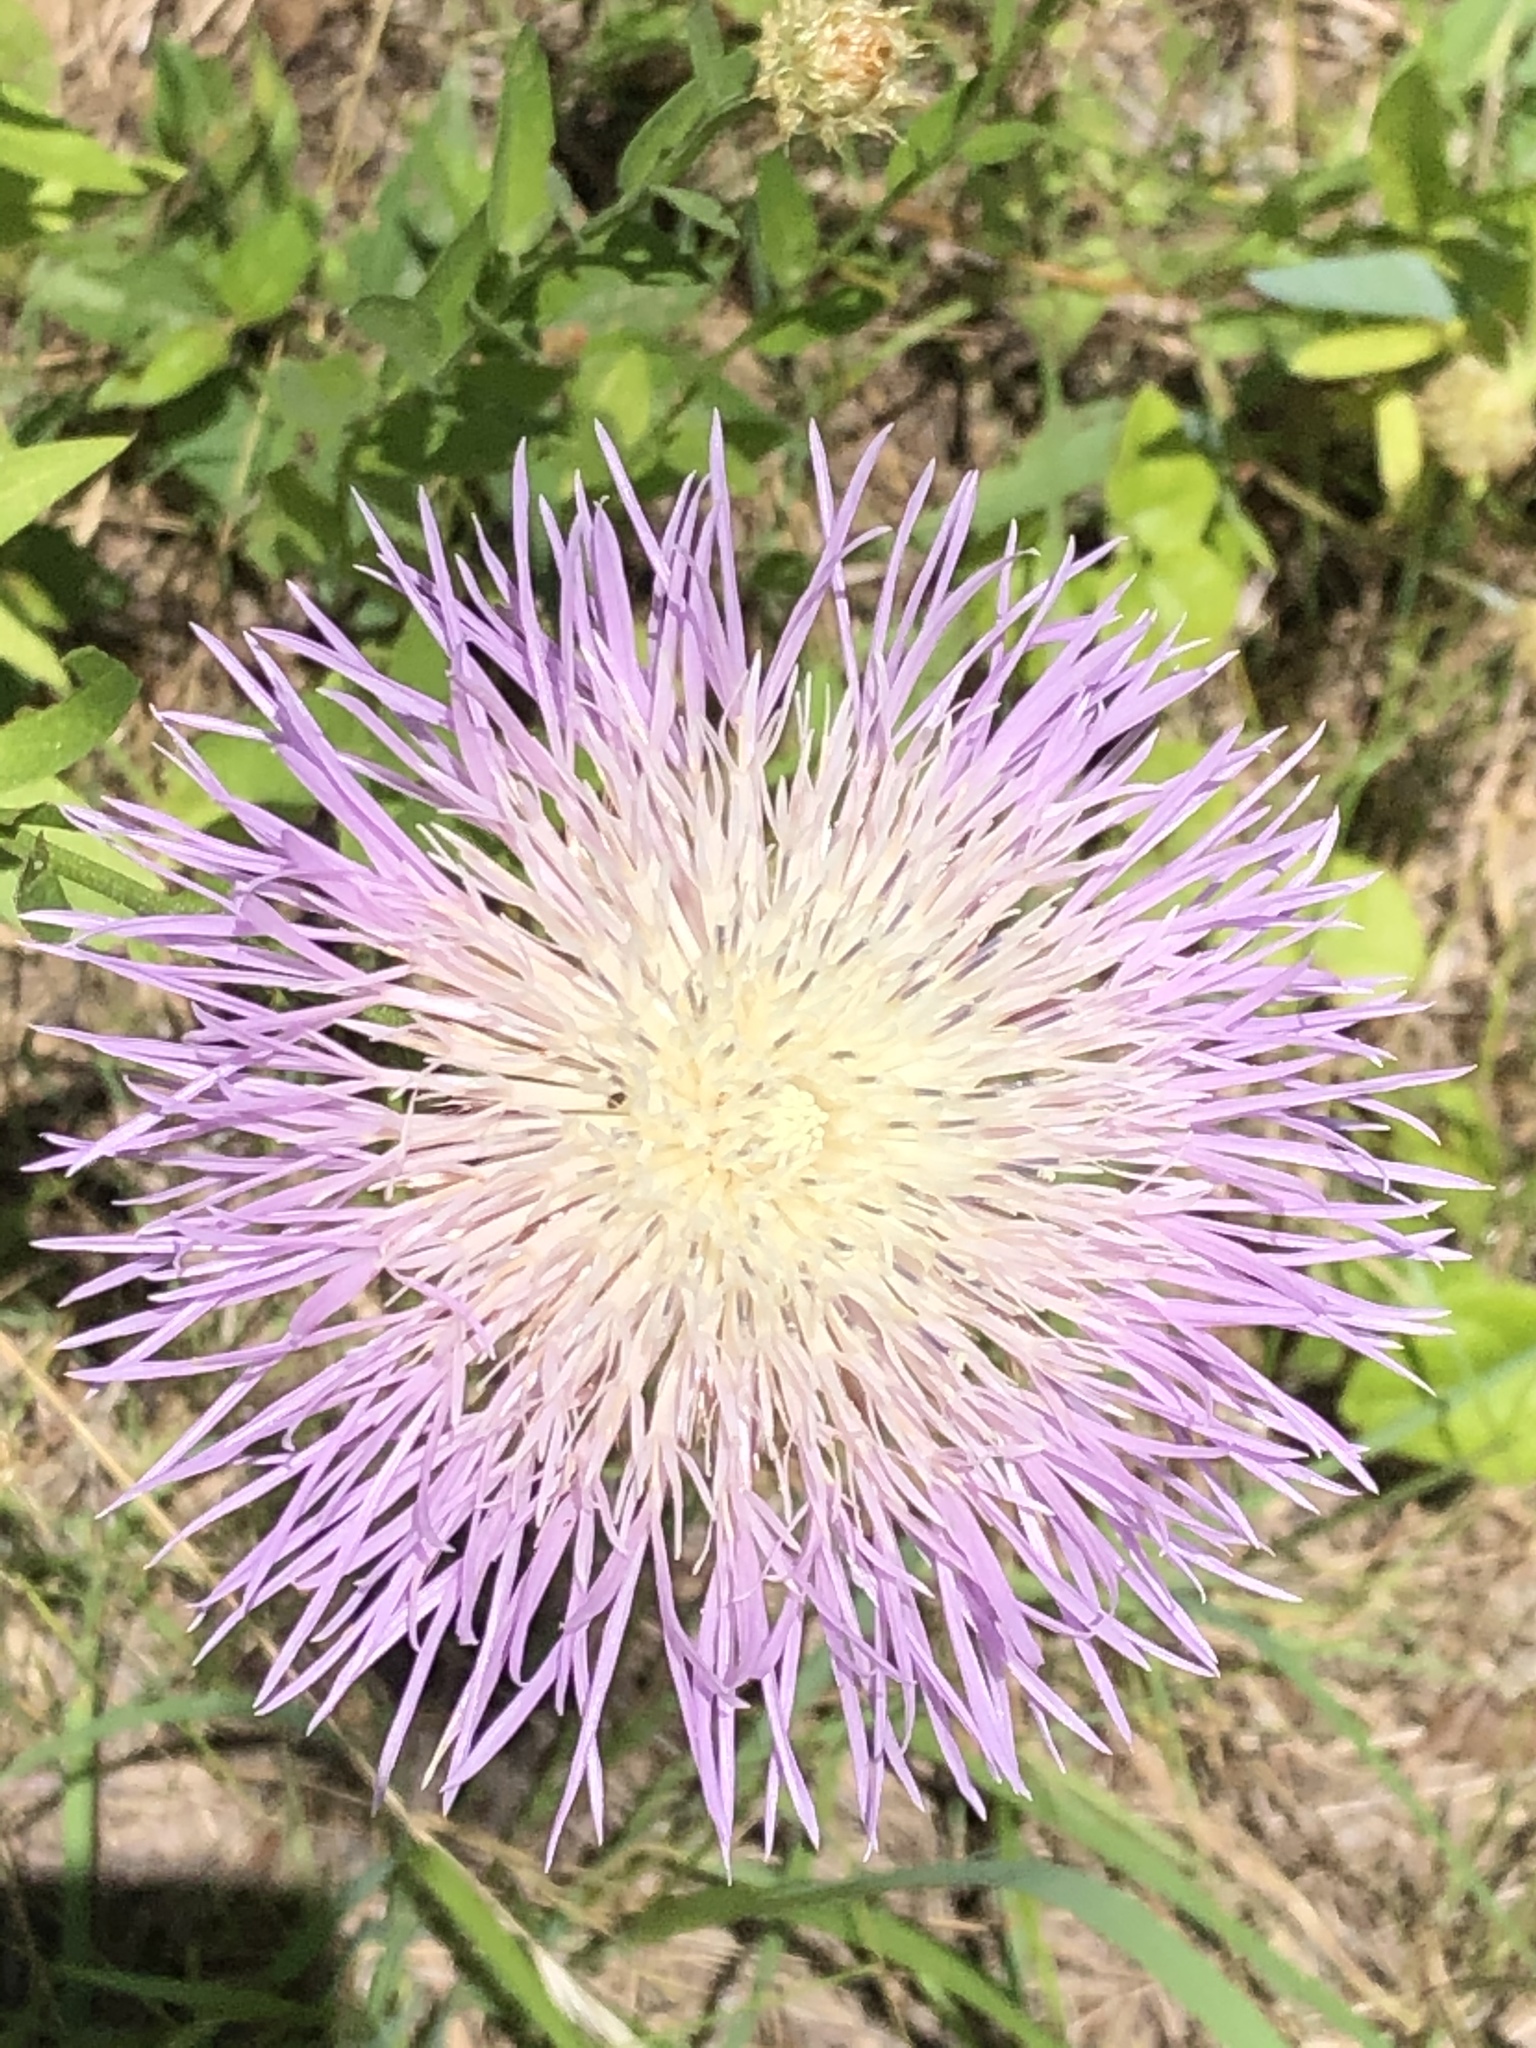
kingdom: Plantae
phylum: Tracheophyta
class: Magnoliopsida
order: Asterales
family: Asteraceae
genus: Plectocephalus
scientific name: Plectocephalus americanus
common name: American basket-flower
